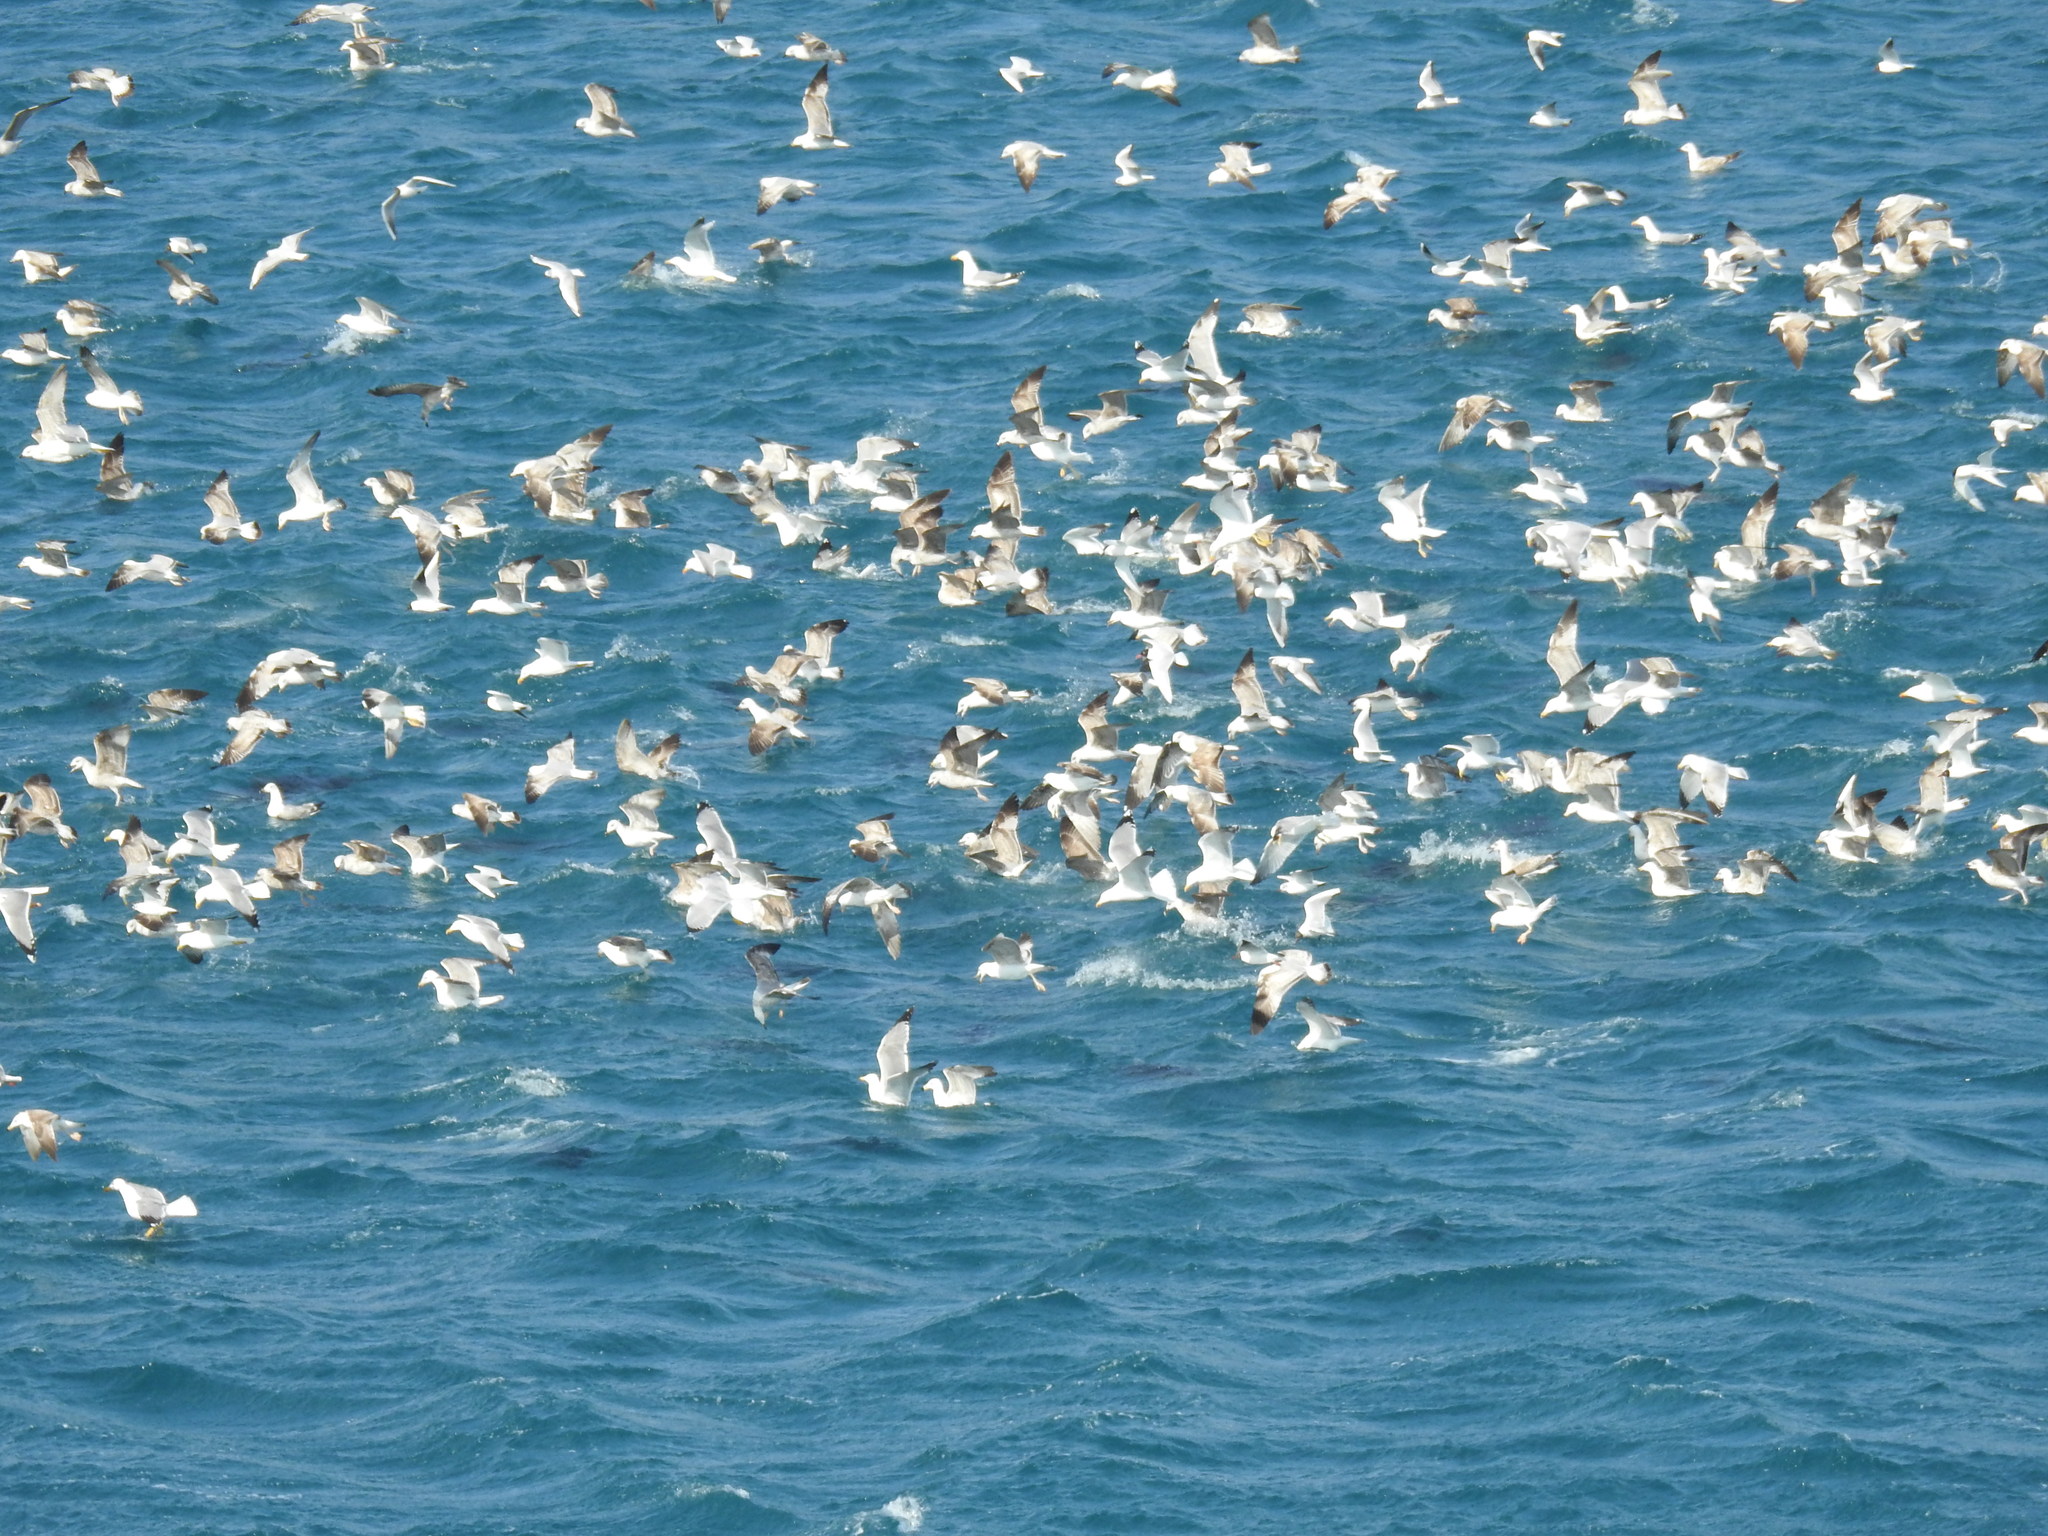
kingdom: Animalia
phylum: Chordata
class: Aves
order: Charadriiformes
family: Laridae
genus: Larus
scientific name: Larus michahellis
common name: Yellow-legged gull
